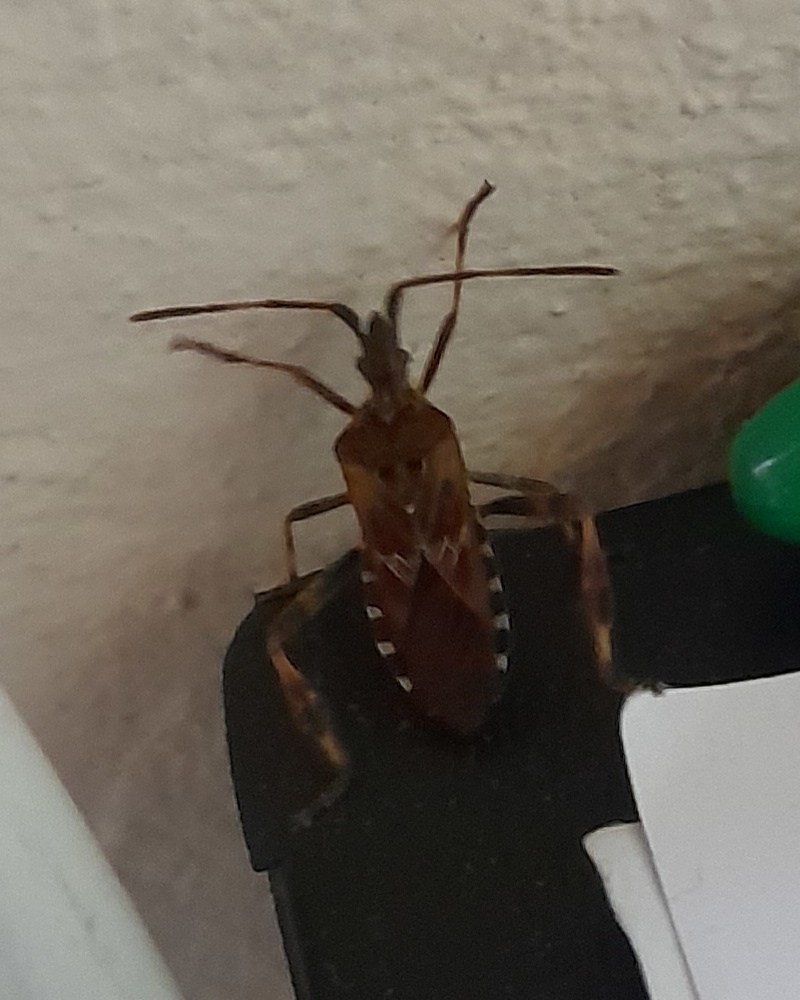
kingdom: Animalia
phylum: Arthropoda
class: Insecta
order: Hemiptera
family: Coreidae
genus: Leptoglossus
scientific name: Leptoglossus occidentalis
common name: Western conifer-seed bug
